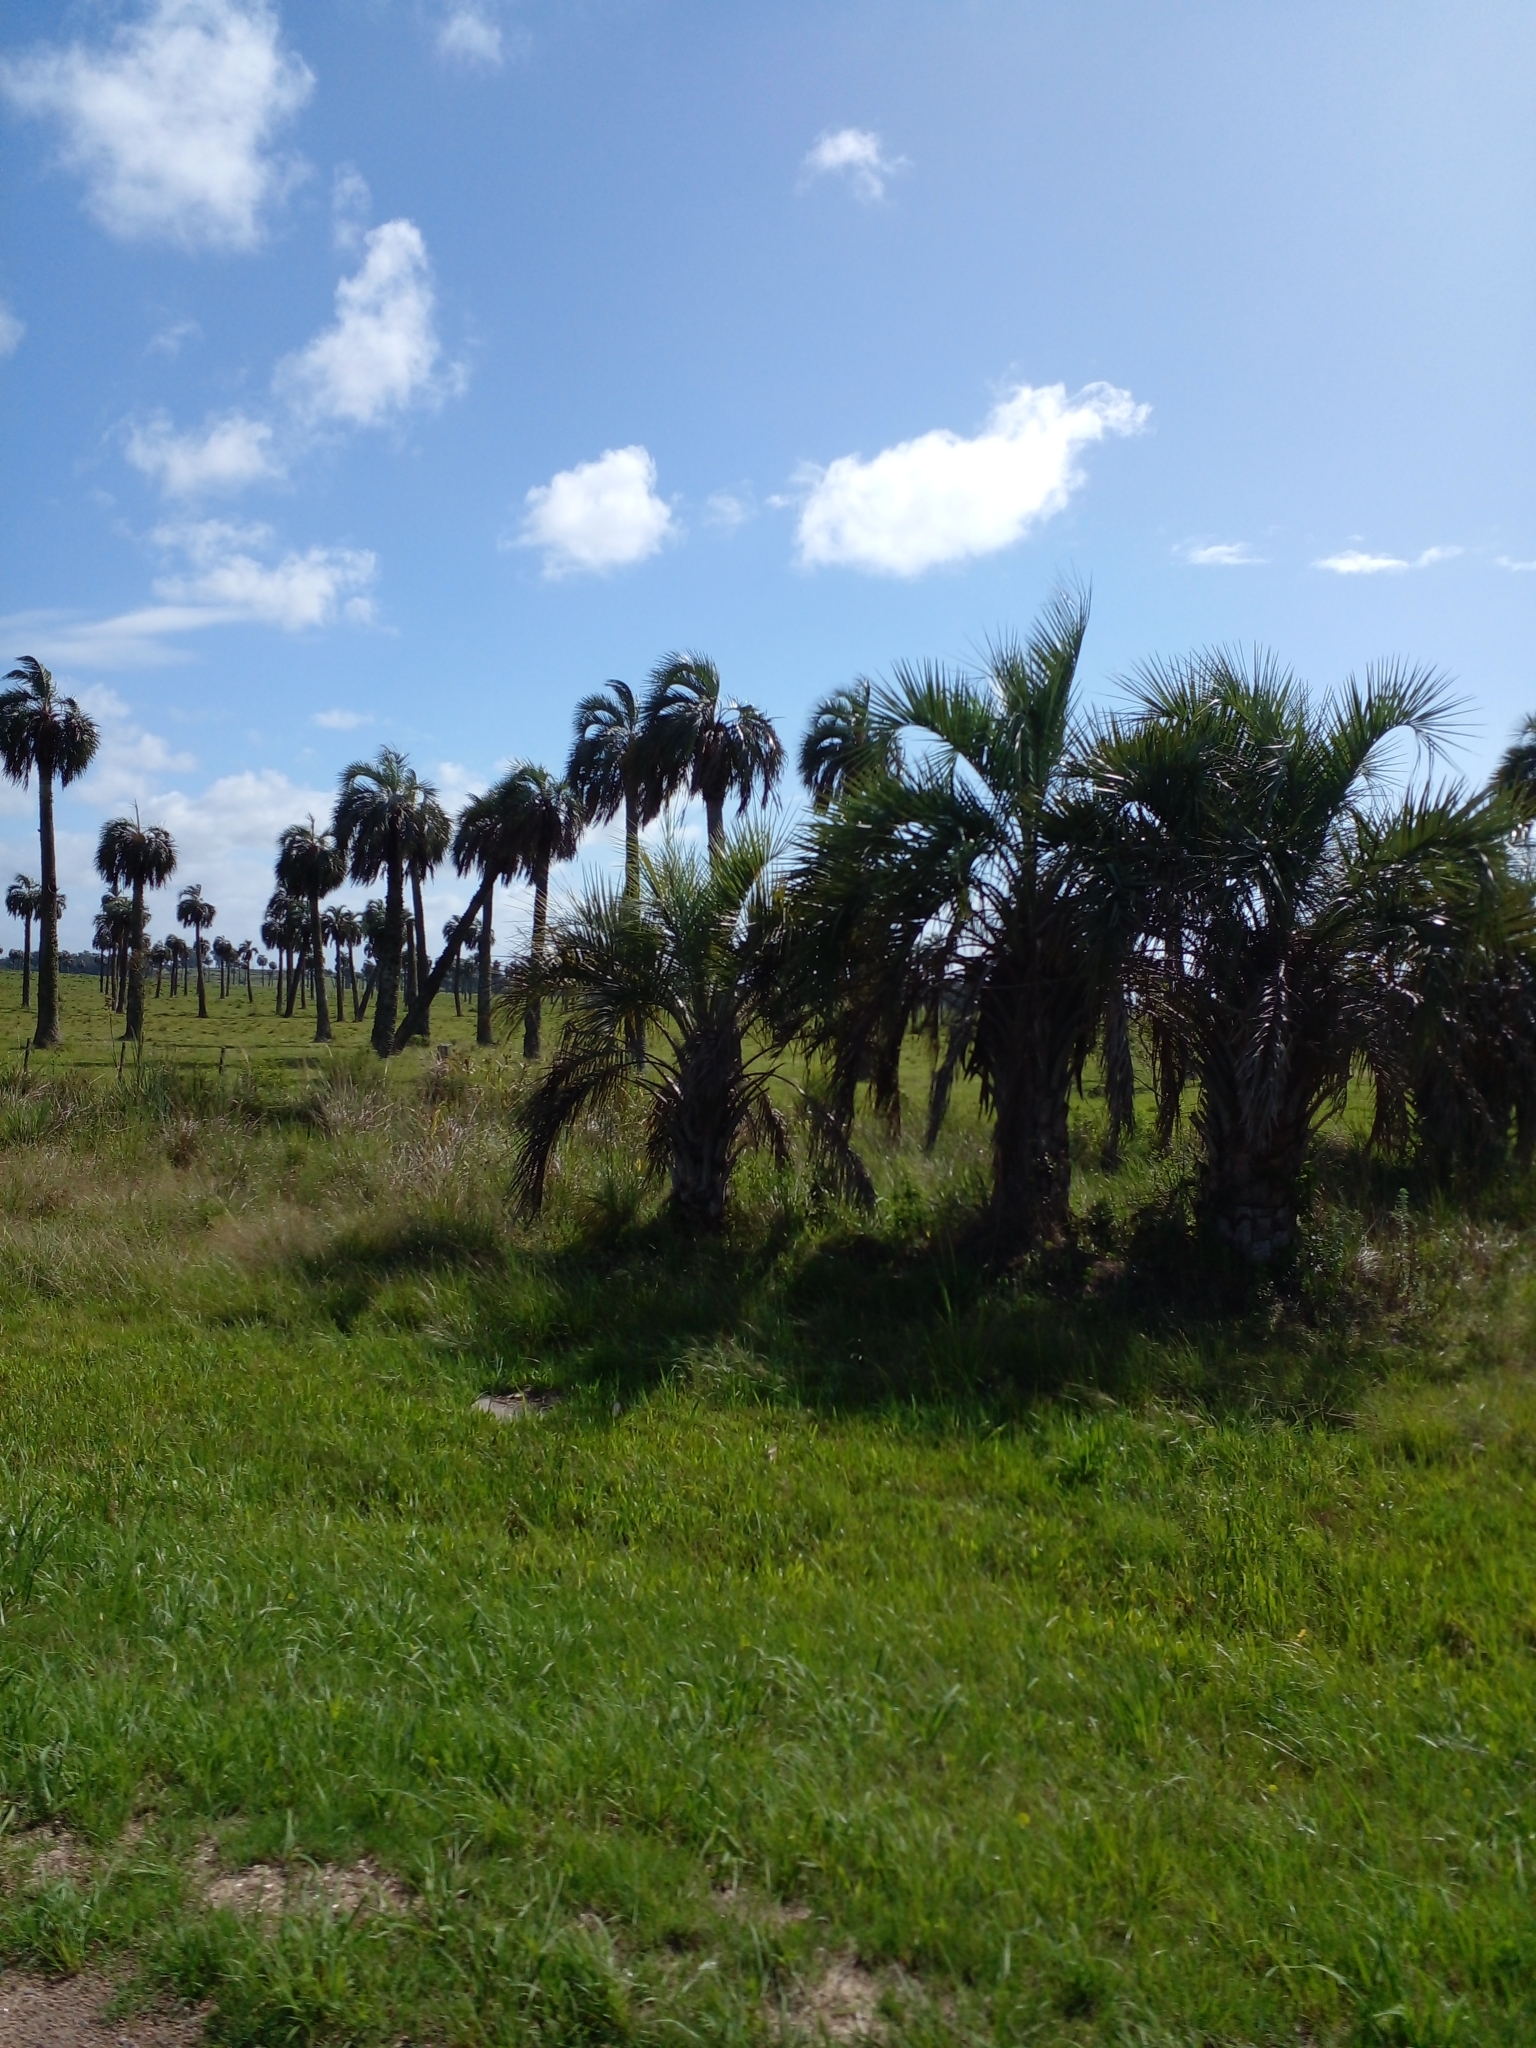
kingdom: Plantae
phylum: Tracheophyta
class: Liliopsida
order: Arecales
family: Arecaceae
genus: Butia
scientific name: Butia odorata
